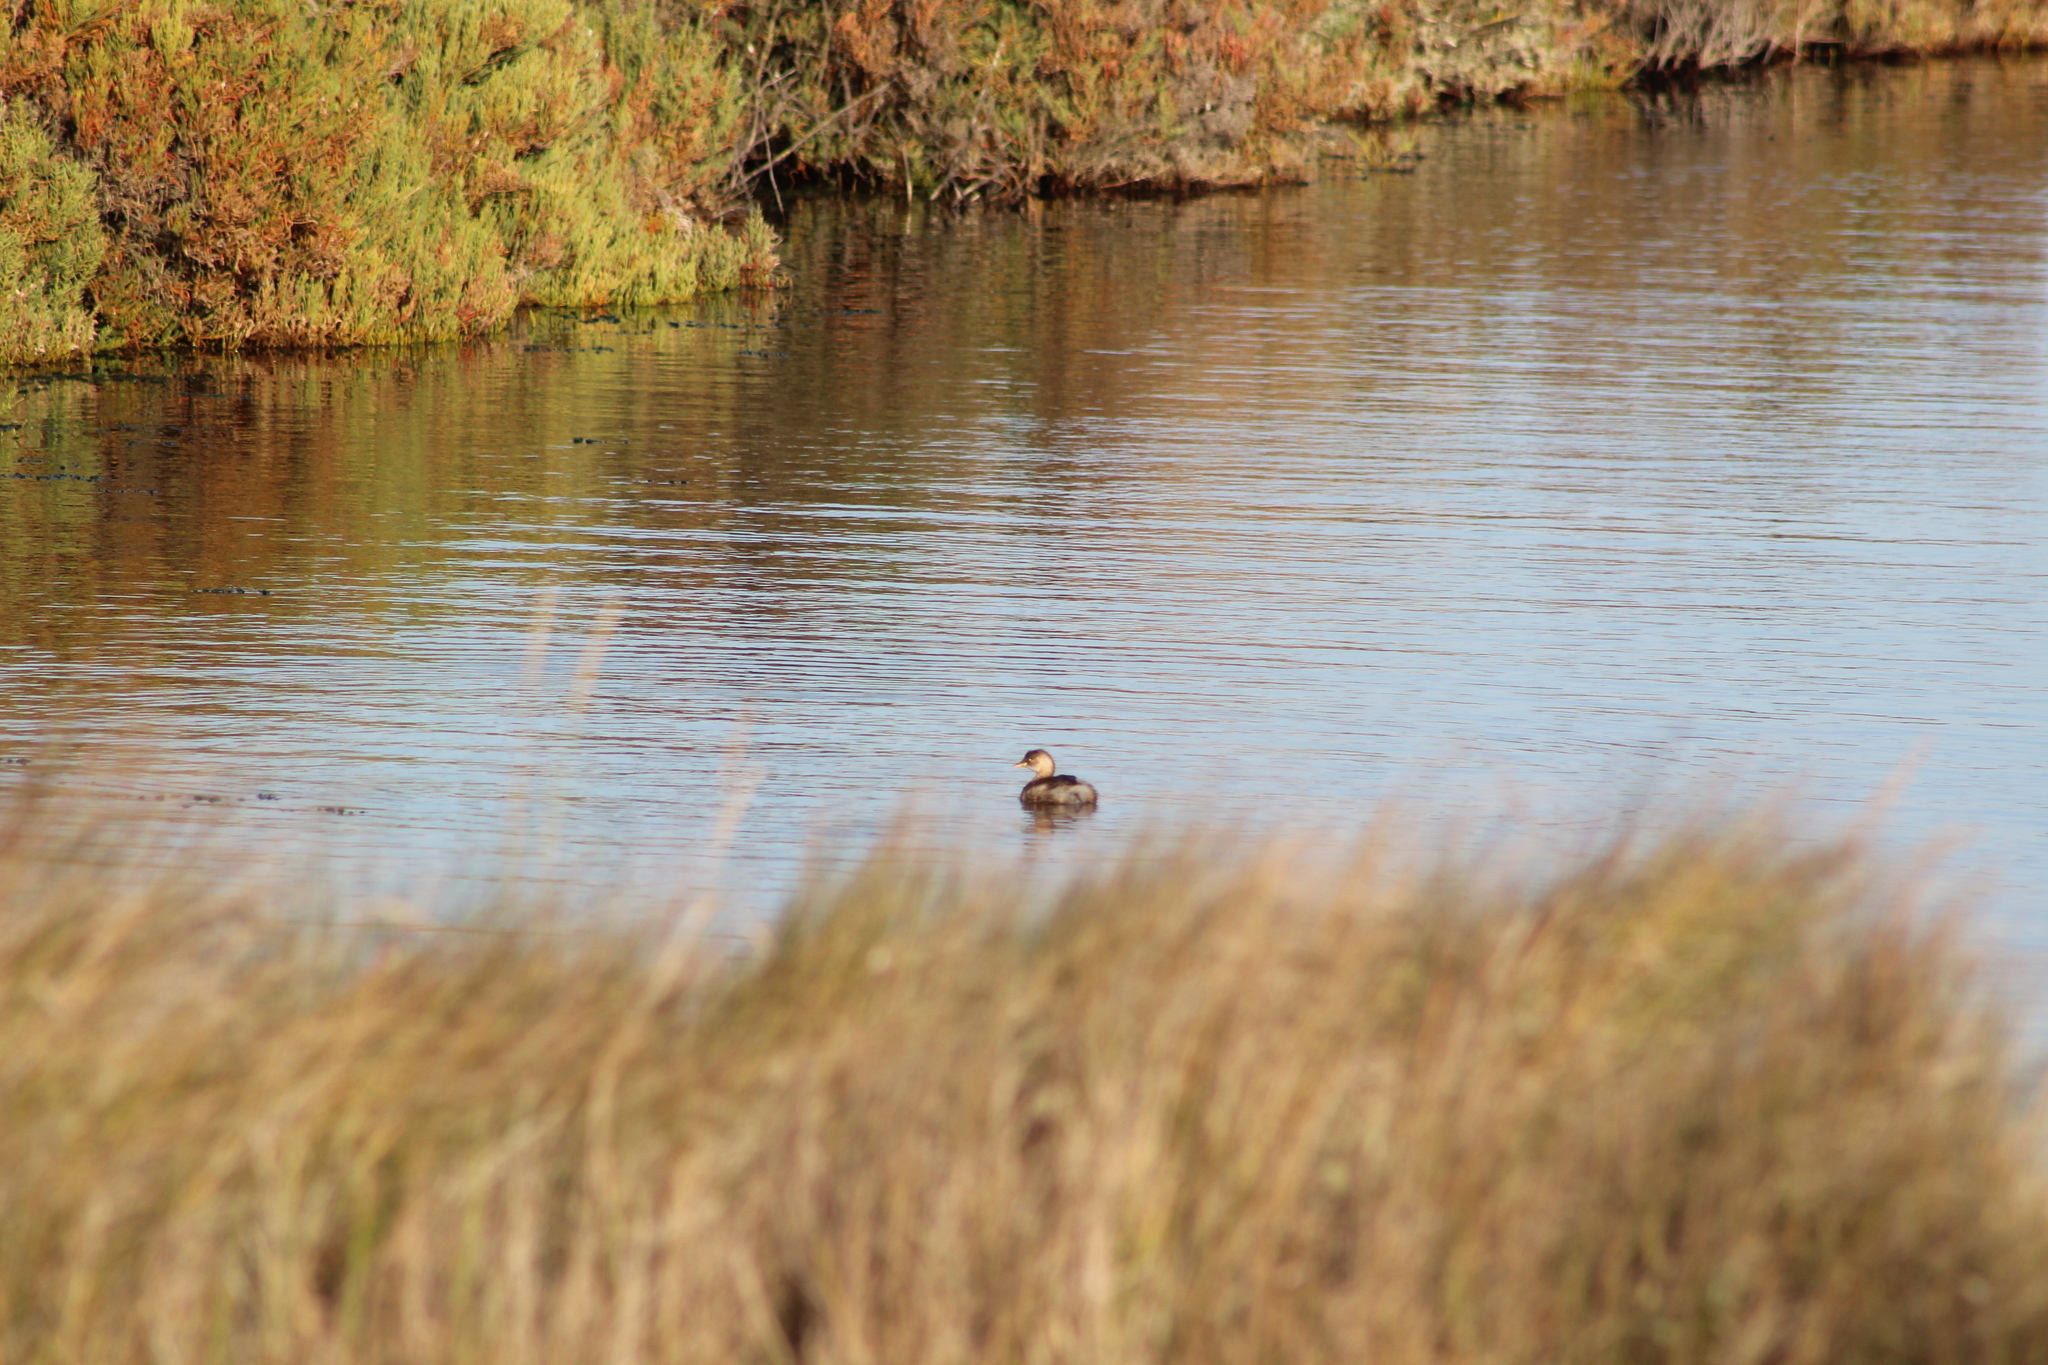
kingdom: Animalia
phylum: Chordata
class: Aves
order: Podicipediformes
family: Podicipedidae
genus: Tachybaptus
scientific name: Tachybaptus ruficollis
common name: Little grebe
